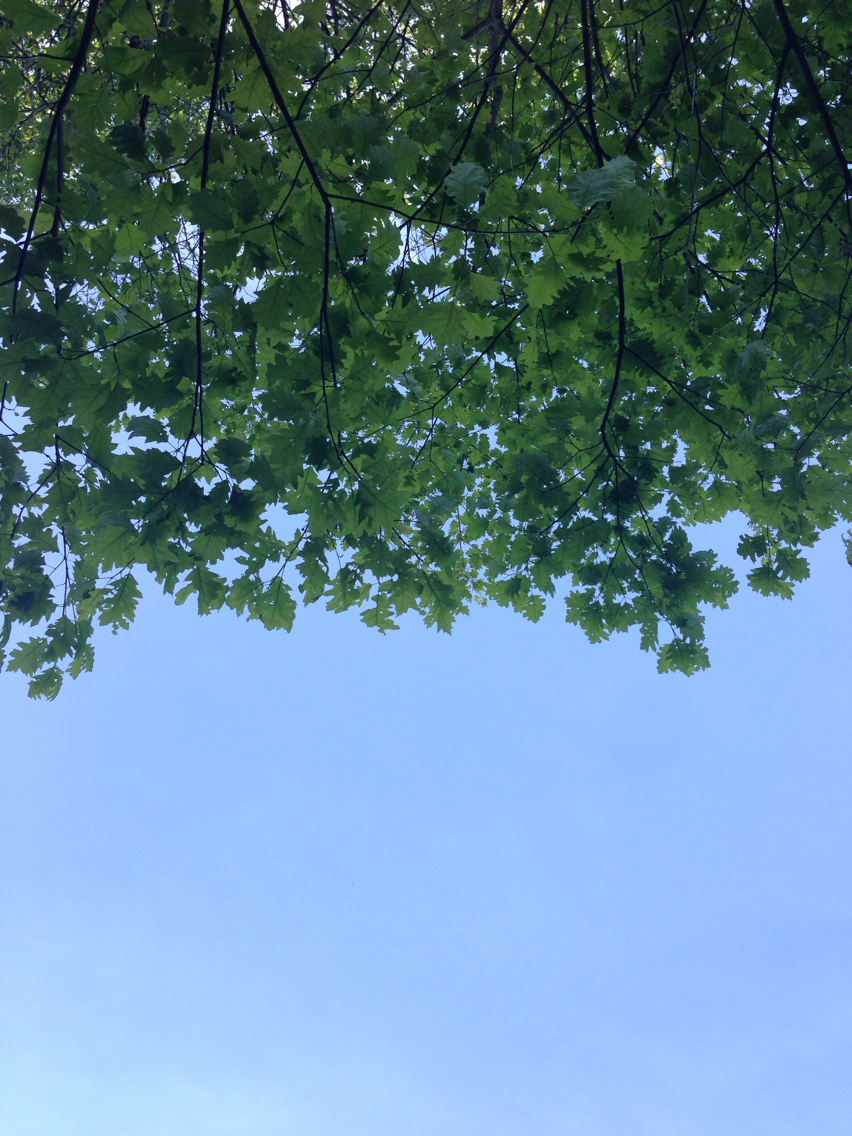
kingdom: Plantae
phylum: Tracheophyta
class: Magnoliopsida
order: Fagales
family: Fagaceae
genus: Quercus
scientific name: Quercus rubra
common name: Red oak
